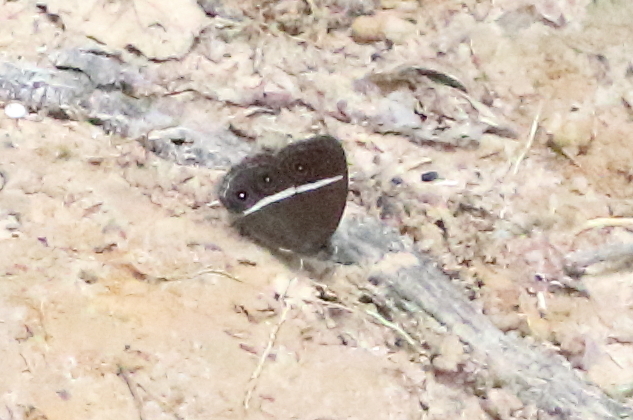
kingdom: Animalia
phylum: Arthropoda
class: Insecta
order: Lepidoptera
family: Nymphalidae
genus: Orsotriaena
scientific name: Orsotriaena medus
